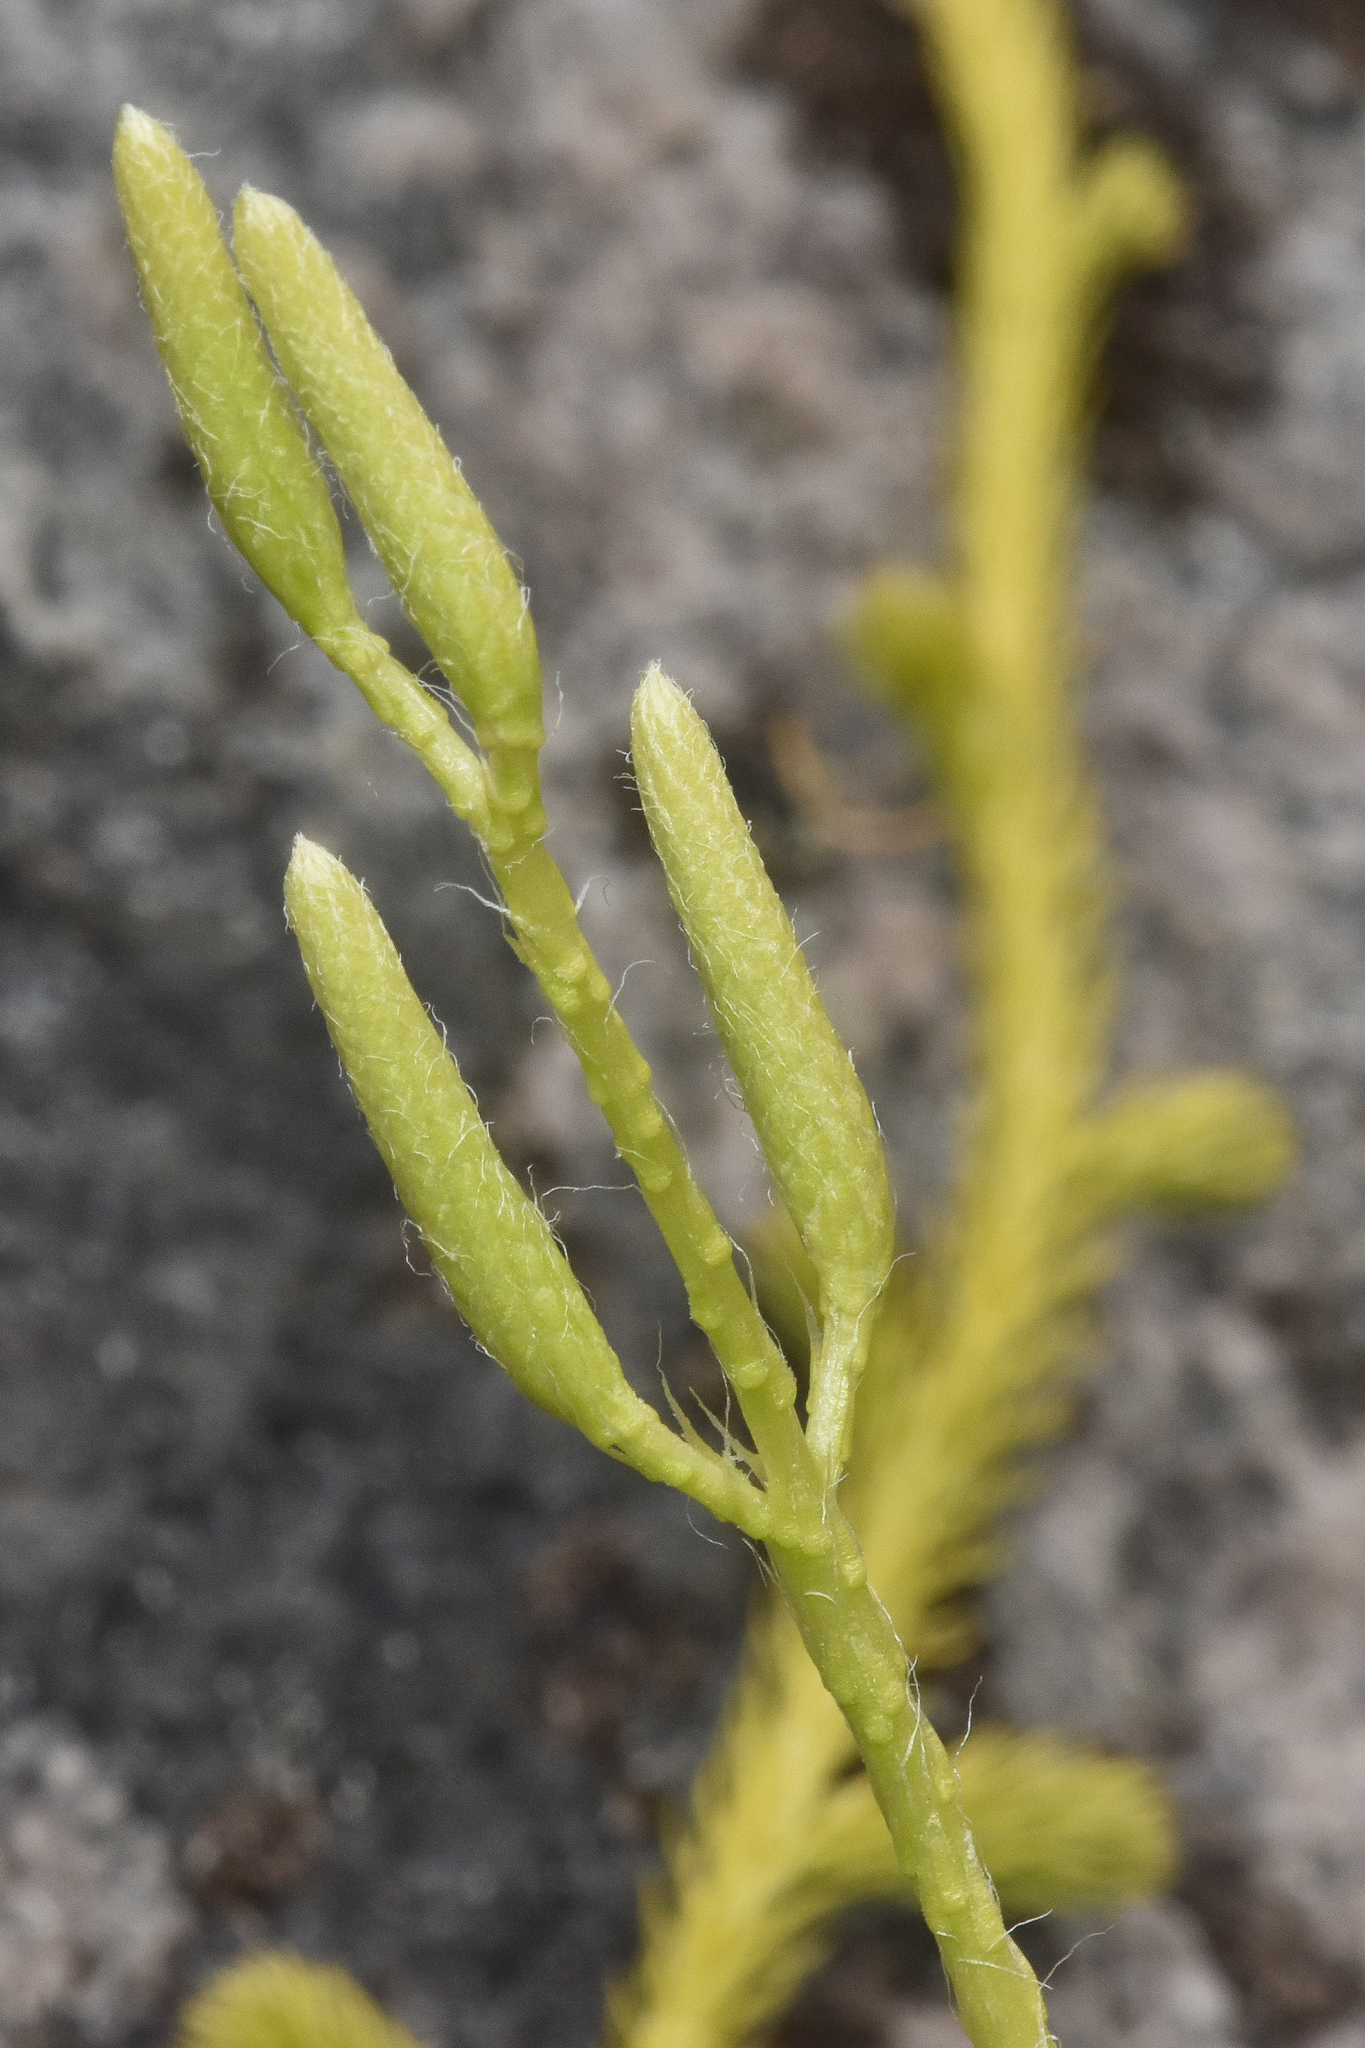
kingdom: Plantae
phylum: Tracheophyta
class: Lycopodiopsida
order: Lycopodiales
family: Lycopodiaceae
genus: Lycopodium
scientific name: Lycopodium clavatum
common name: Stag's-horn clubmoss
